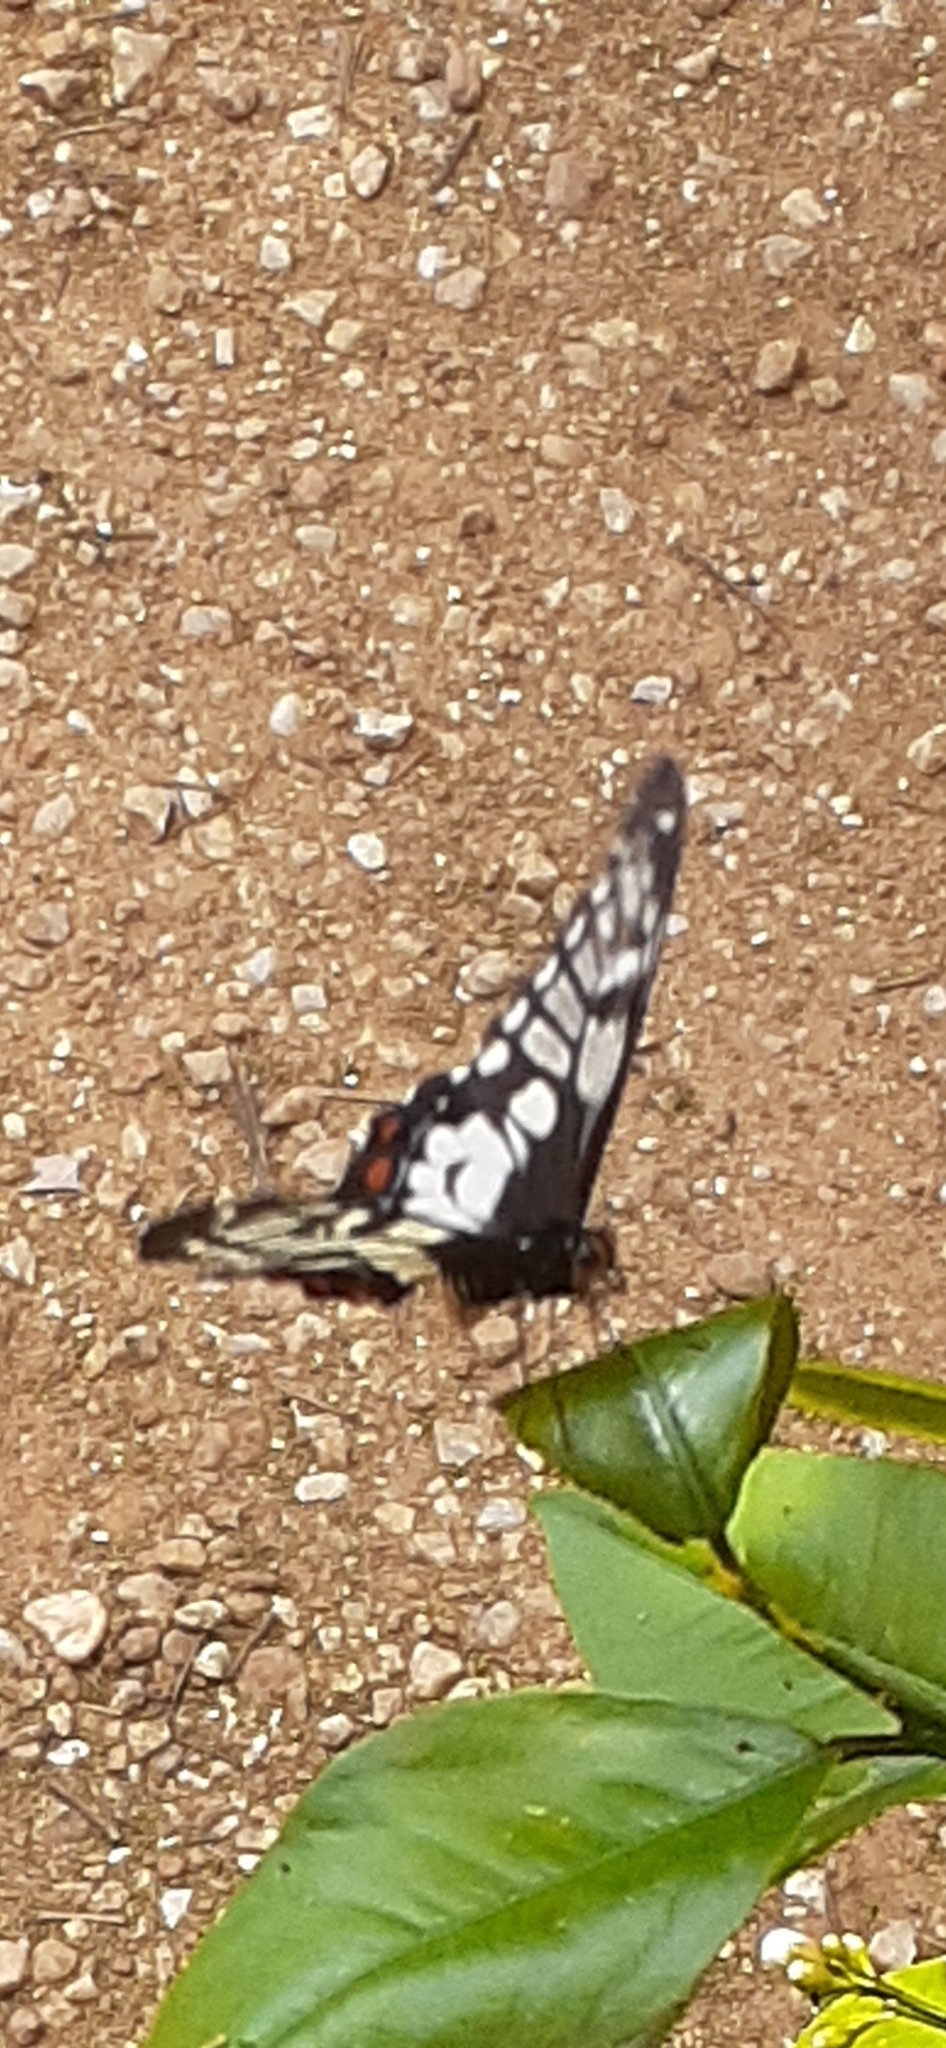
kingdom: Animalia
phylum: Arthropoda
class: Insecta
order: Lepidoptera
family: Papilionidae
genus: Papilio
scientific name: Papilio anactus
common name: Dingy swallowtail
